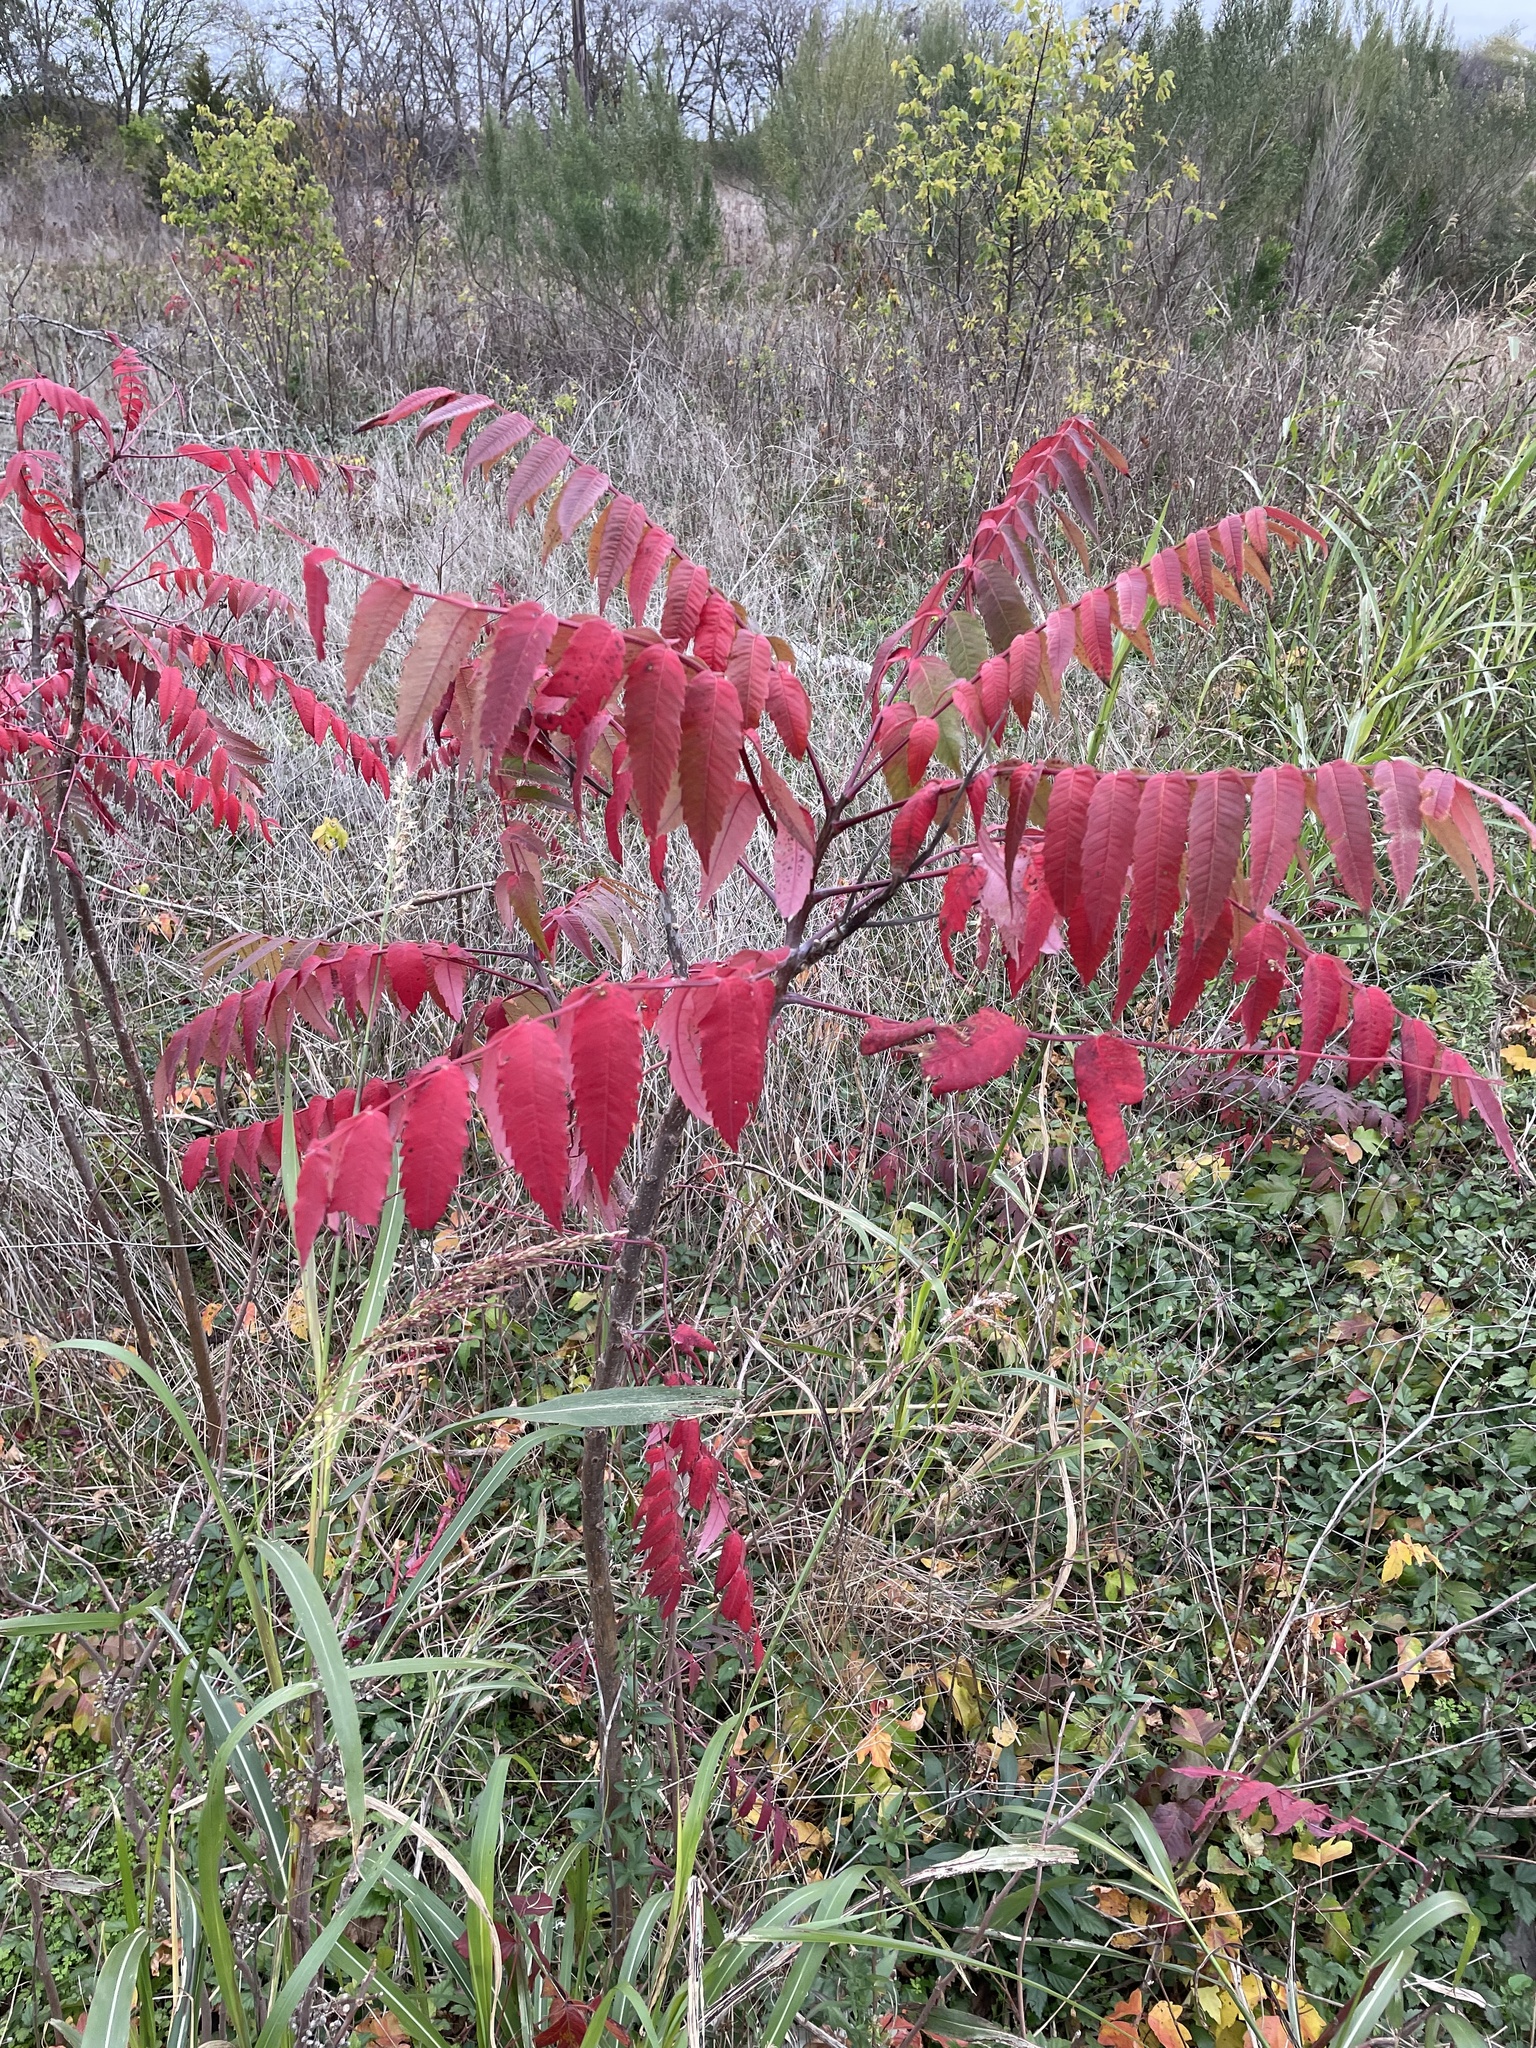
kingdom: Plantae
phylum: Tracheophyta
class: Magnoliopsida
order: Sapindales
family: Anacardiaceae
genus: Rhus
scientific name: Rhus glabra
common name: Scarlet sumac
